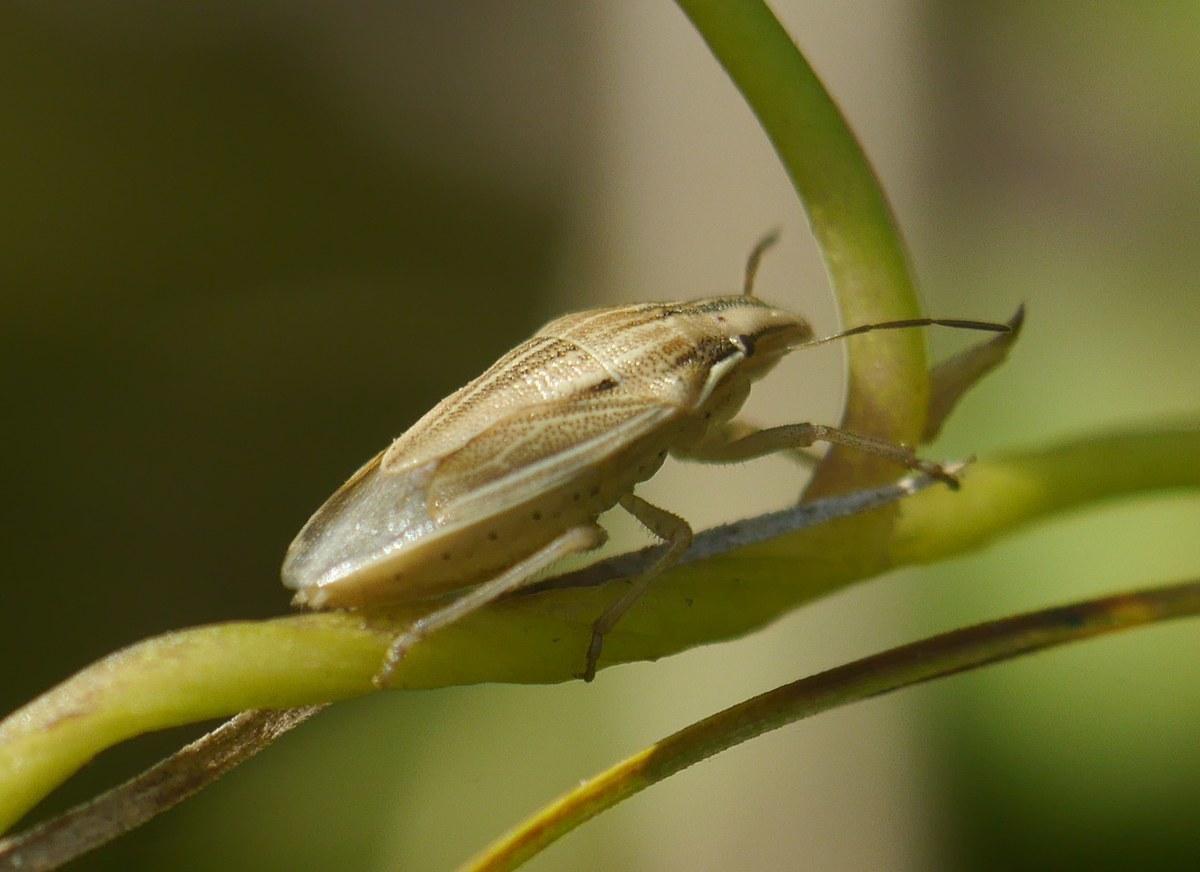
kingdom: Animalia
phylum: Arthropoda
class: Insecta
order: Hemiptera
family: Pentatomidae
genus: Aelia
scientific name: Aelia acuminata
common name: Bishop's mitre
